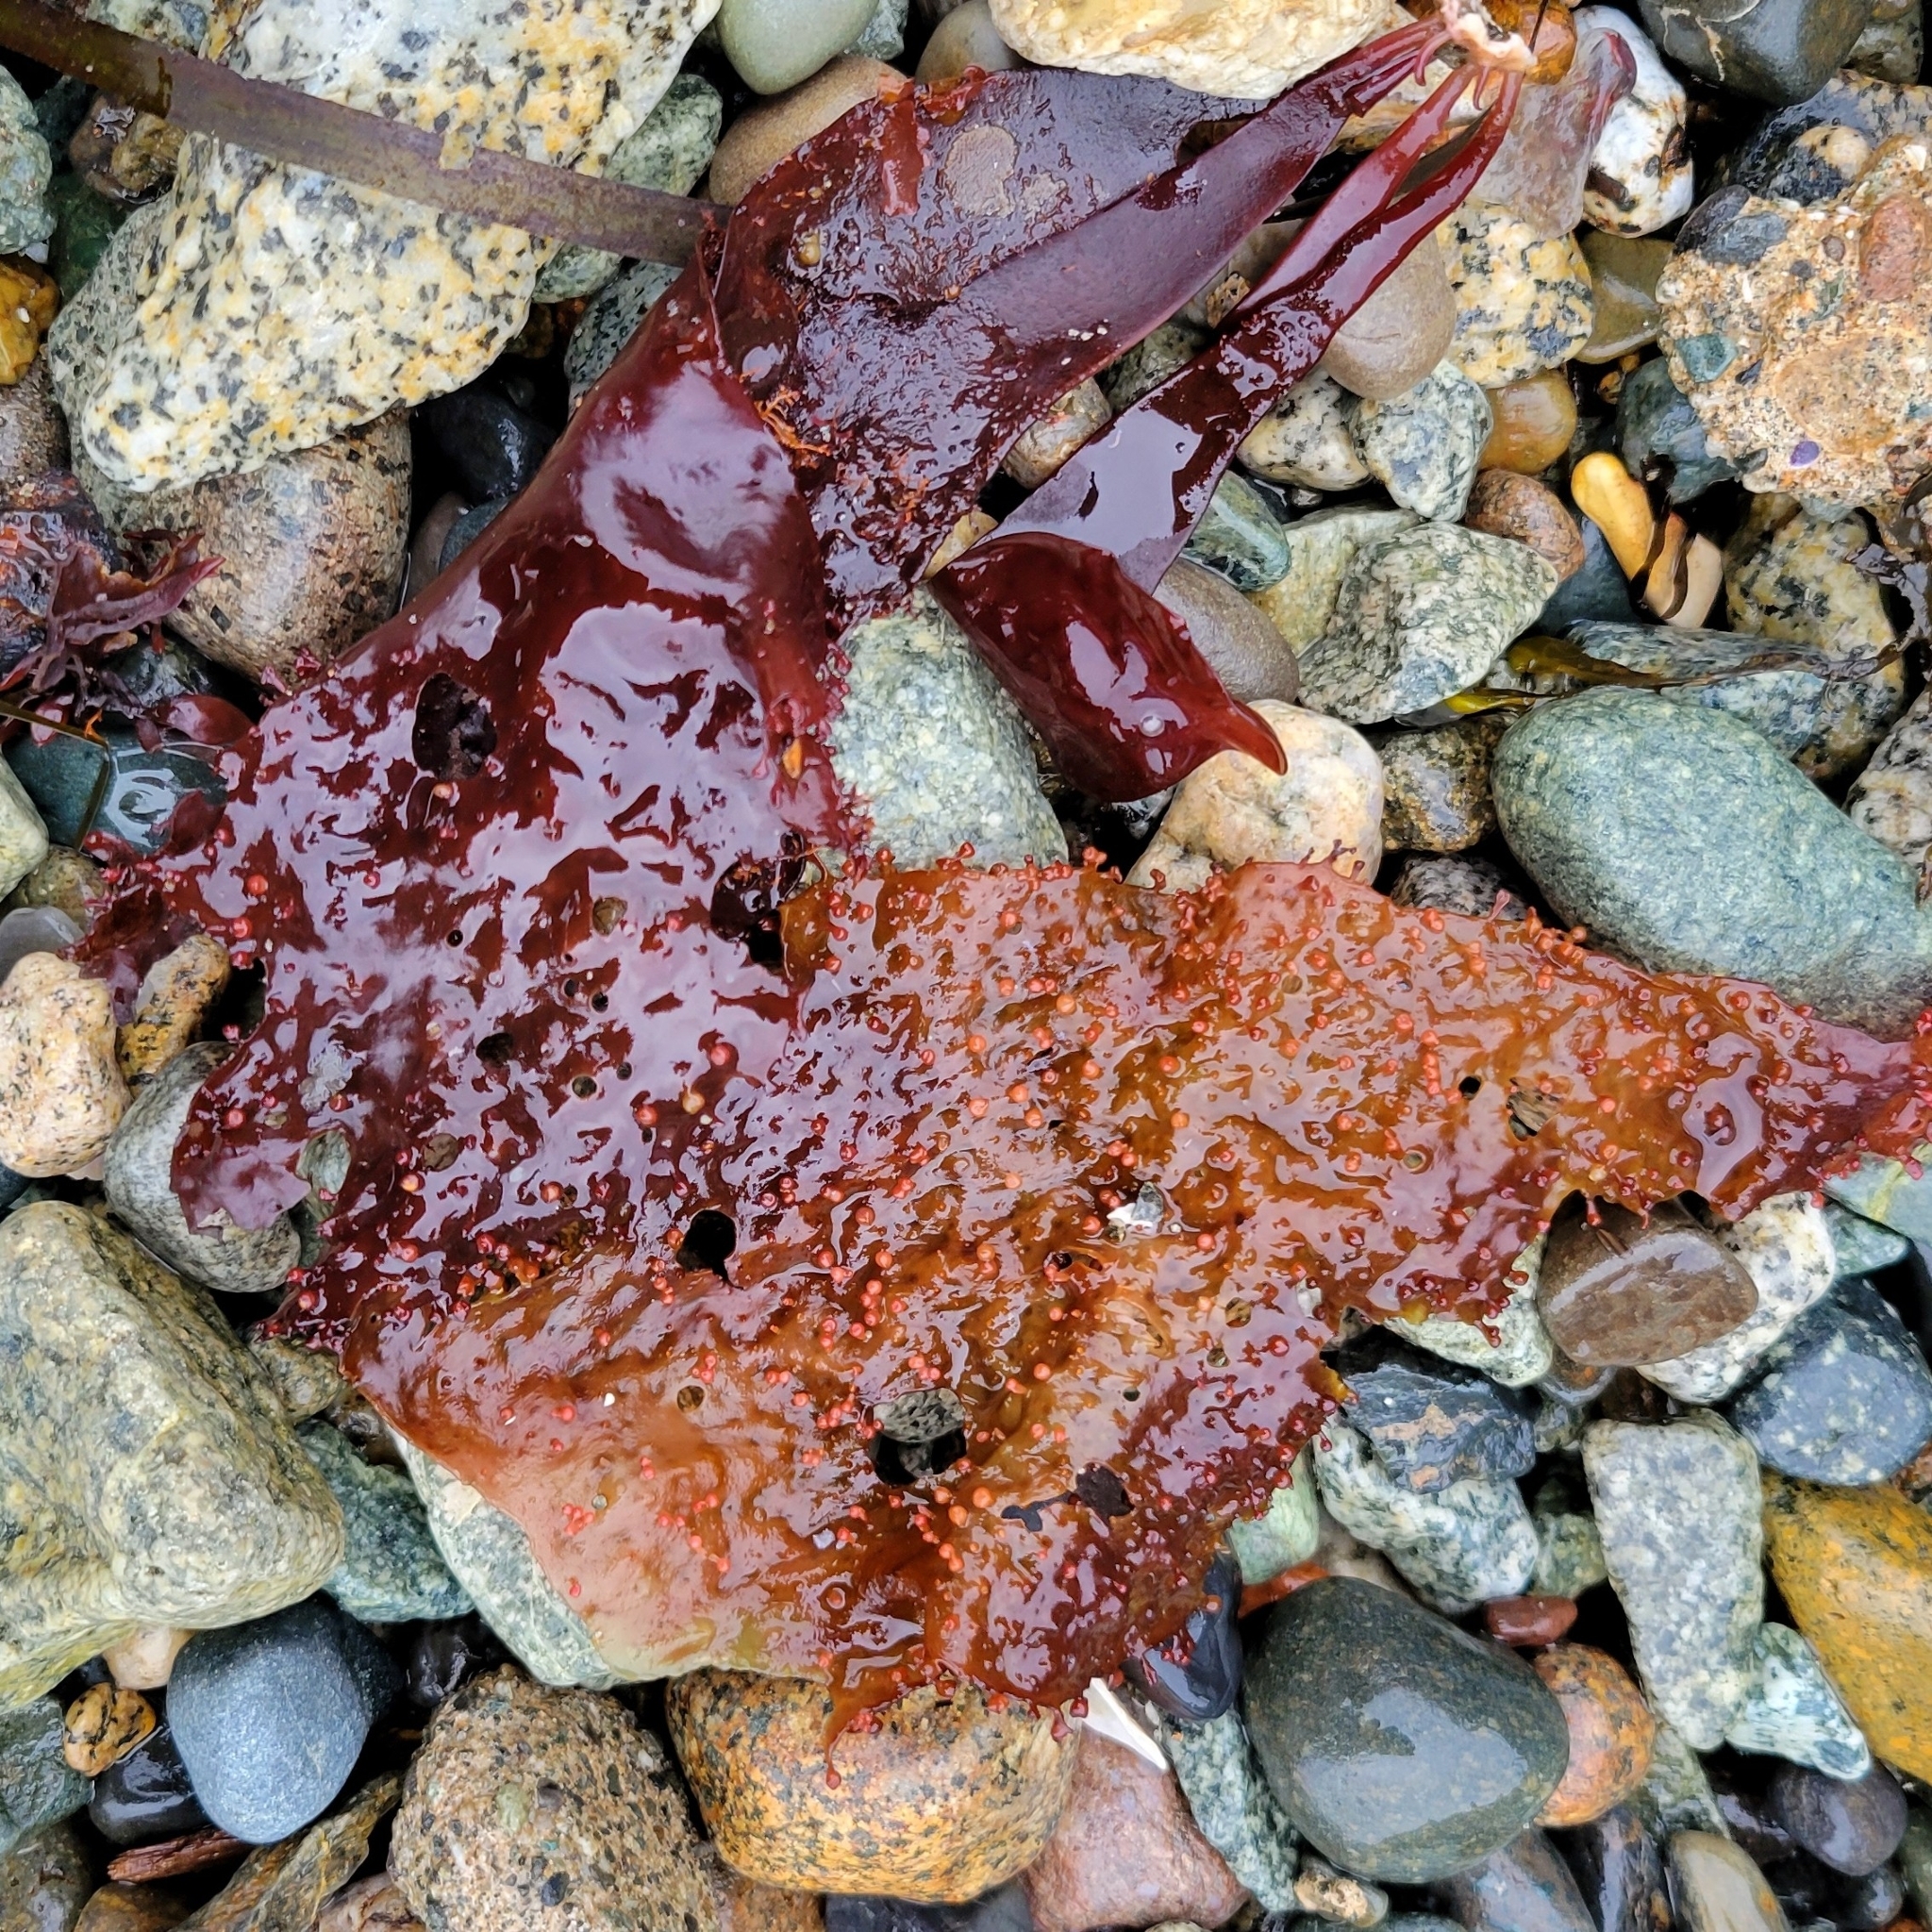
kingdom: Plantae
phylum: Rhodophyta
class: Florideophyceae
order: Gigartinales
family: Gigartinaceae
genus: Chondracanthus
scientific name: Chondracanthus exasperatus
